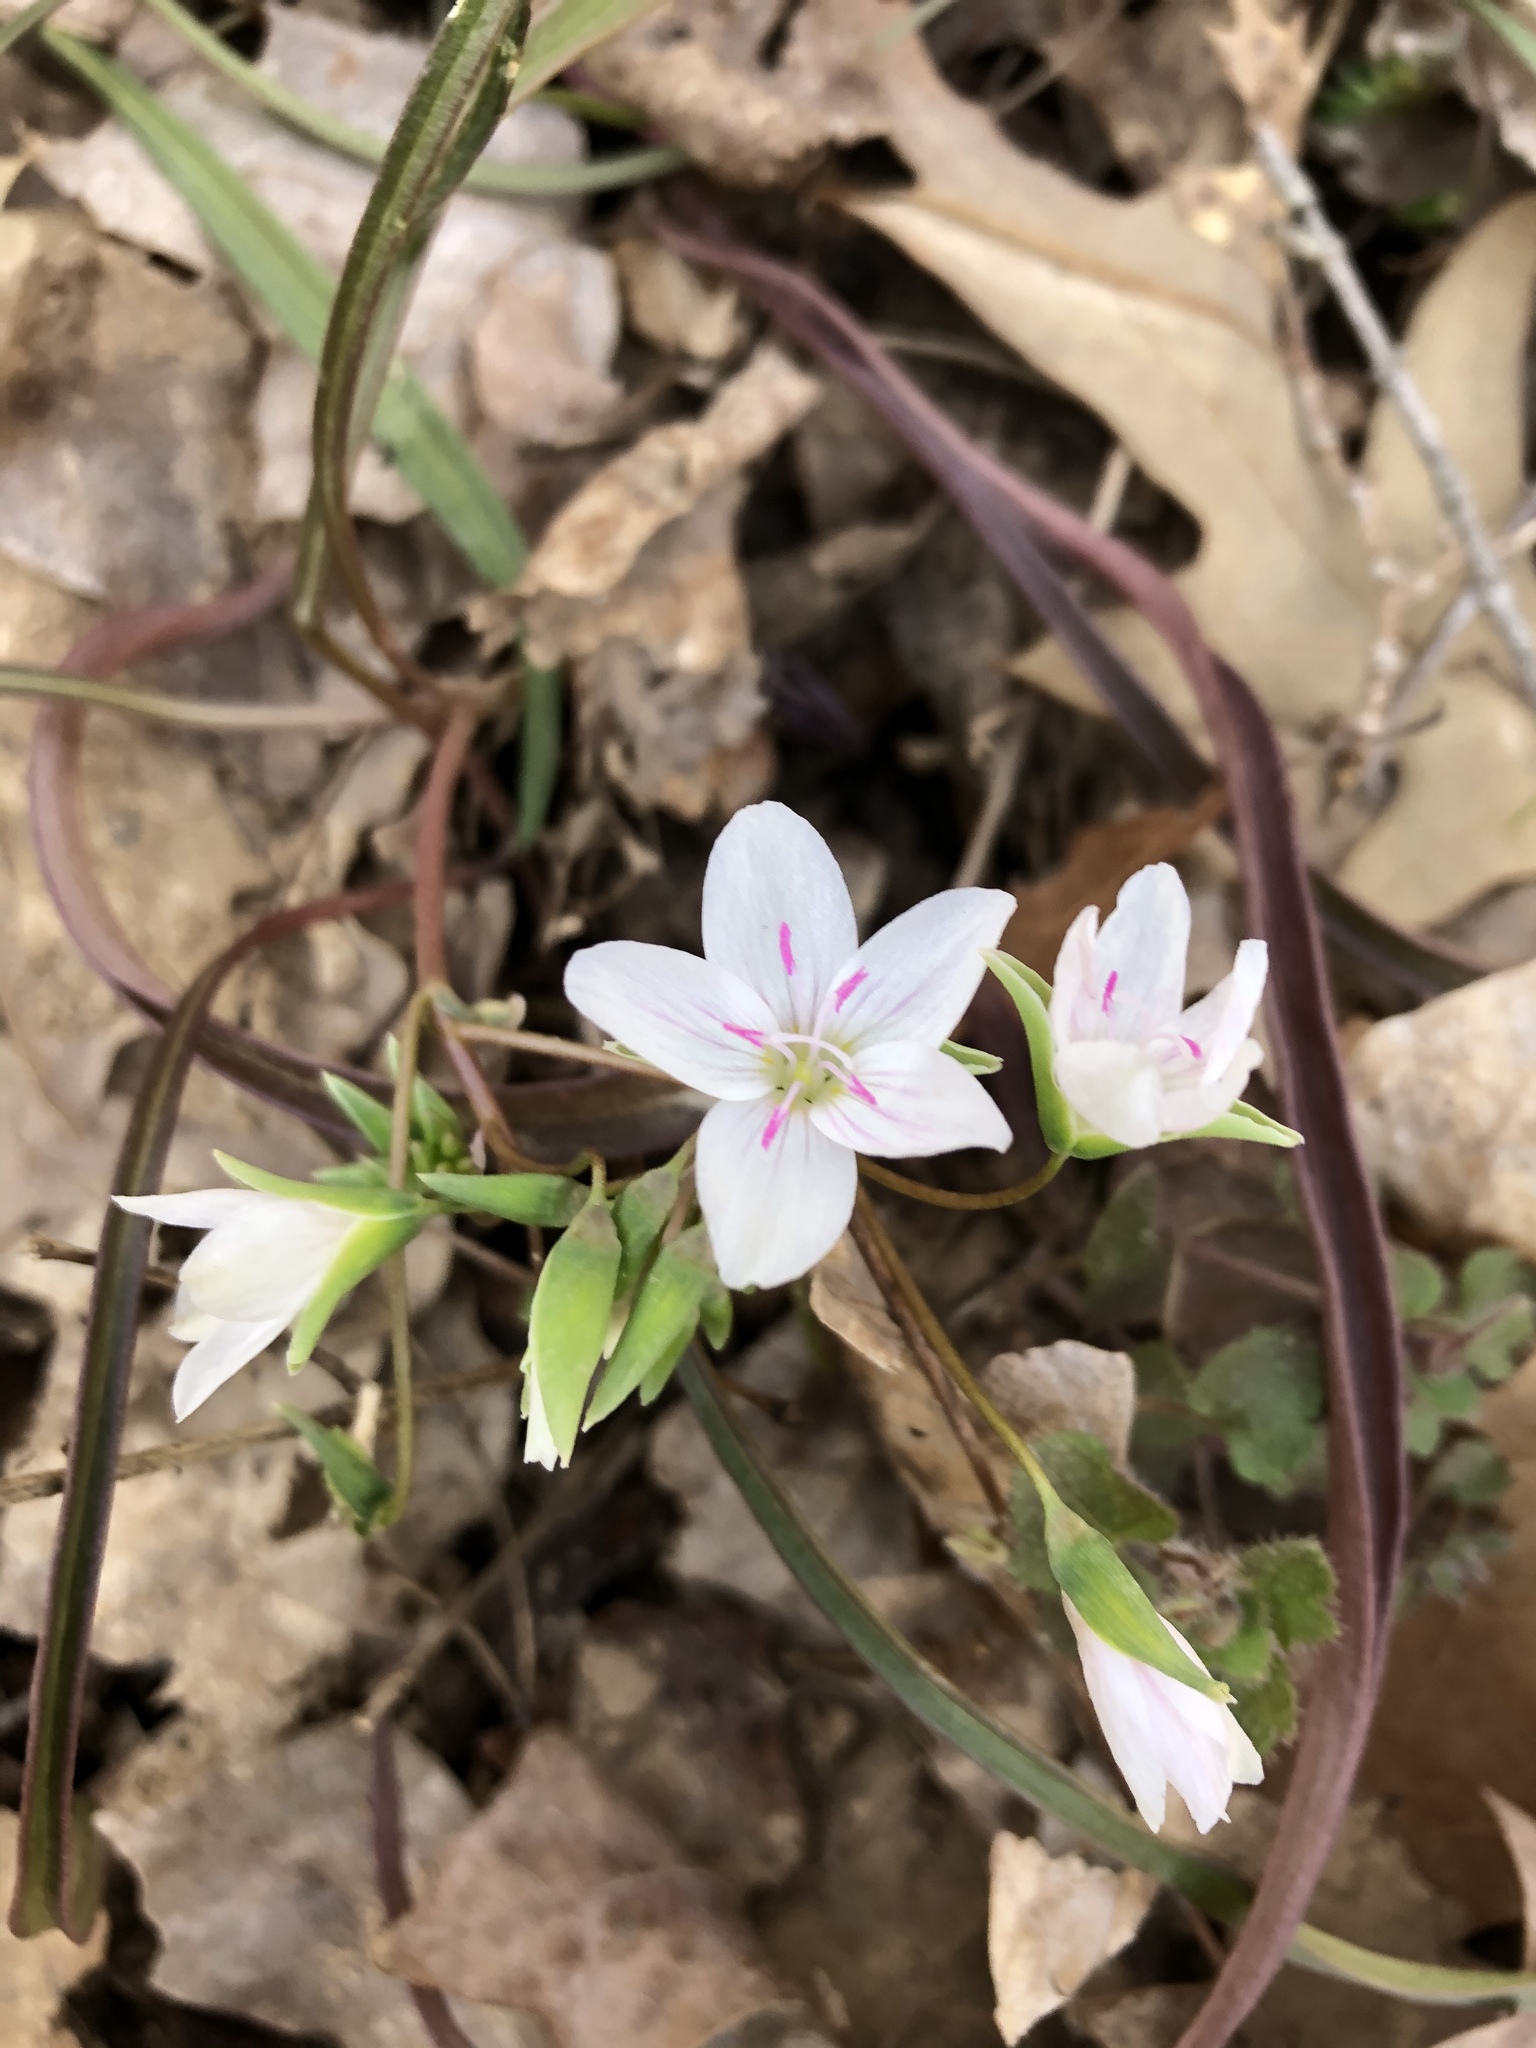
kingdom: Plantae
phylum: Tracheophyta
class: Magnoliopsida
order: Caryophyllales
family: Montiaceae
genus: Claytonia
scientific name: Claytonia virginica
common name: Virginia springbeauty
